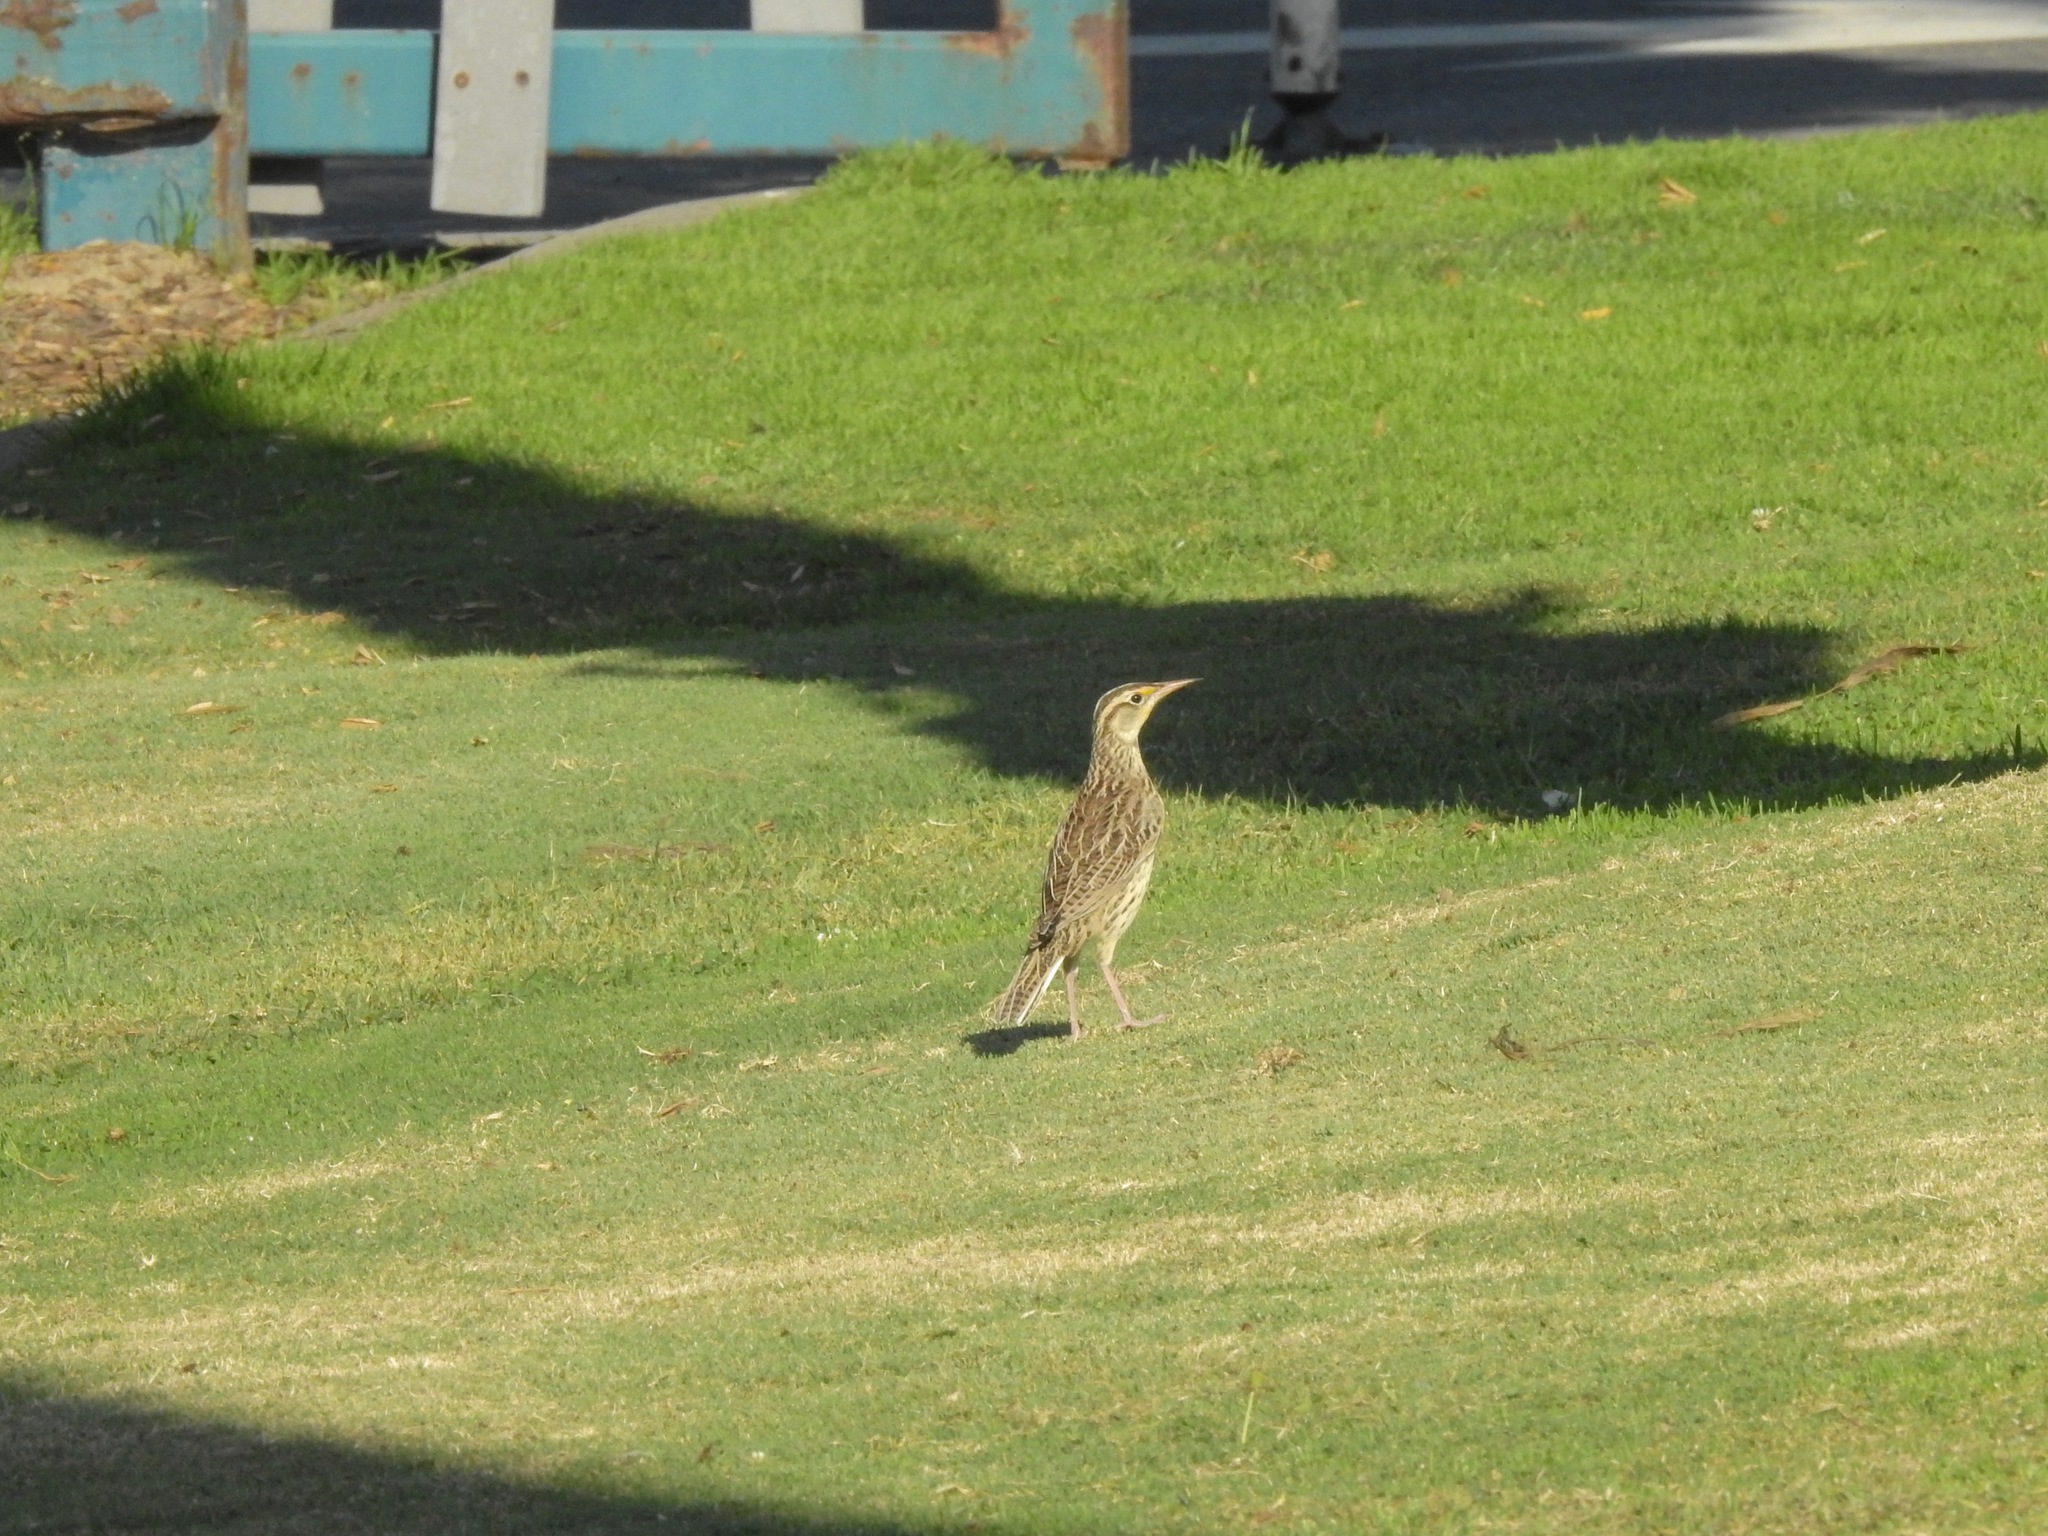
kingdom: Animalia
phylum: Chordata
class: Aves
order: Passeriformes
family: Icteridae
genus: Sturnella
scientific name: Sturnella neglecta
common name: Western meadowlark
